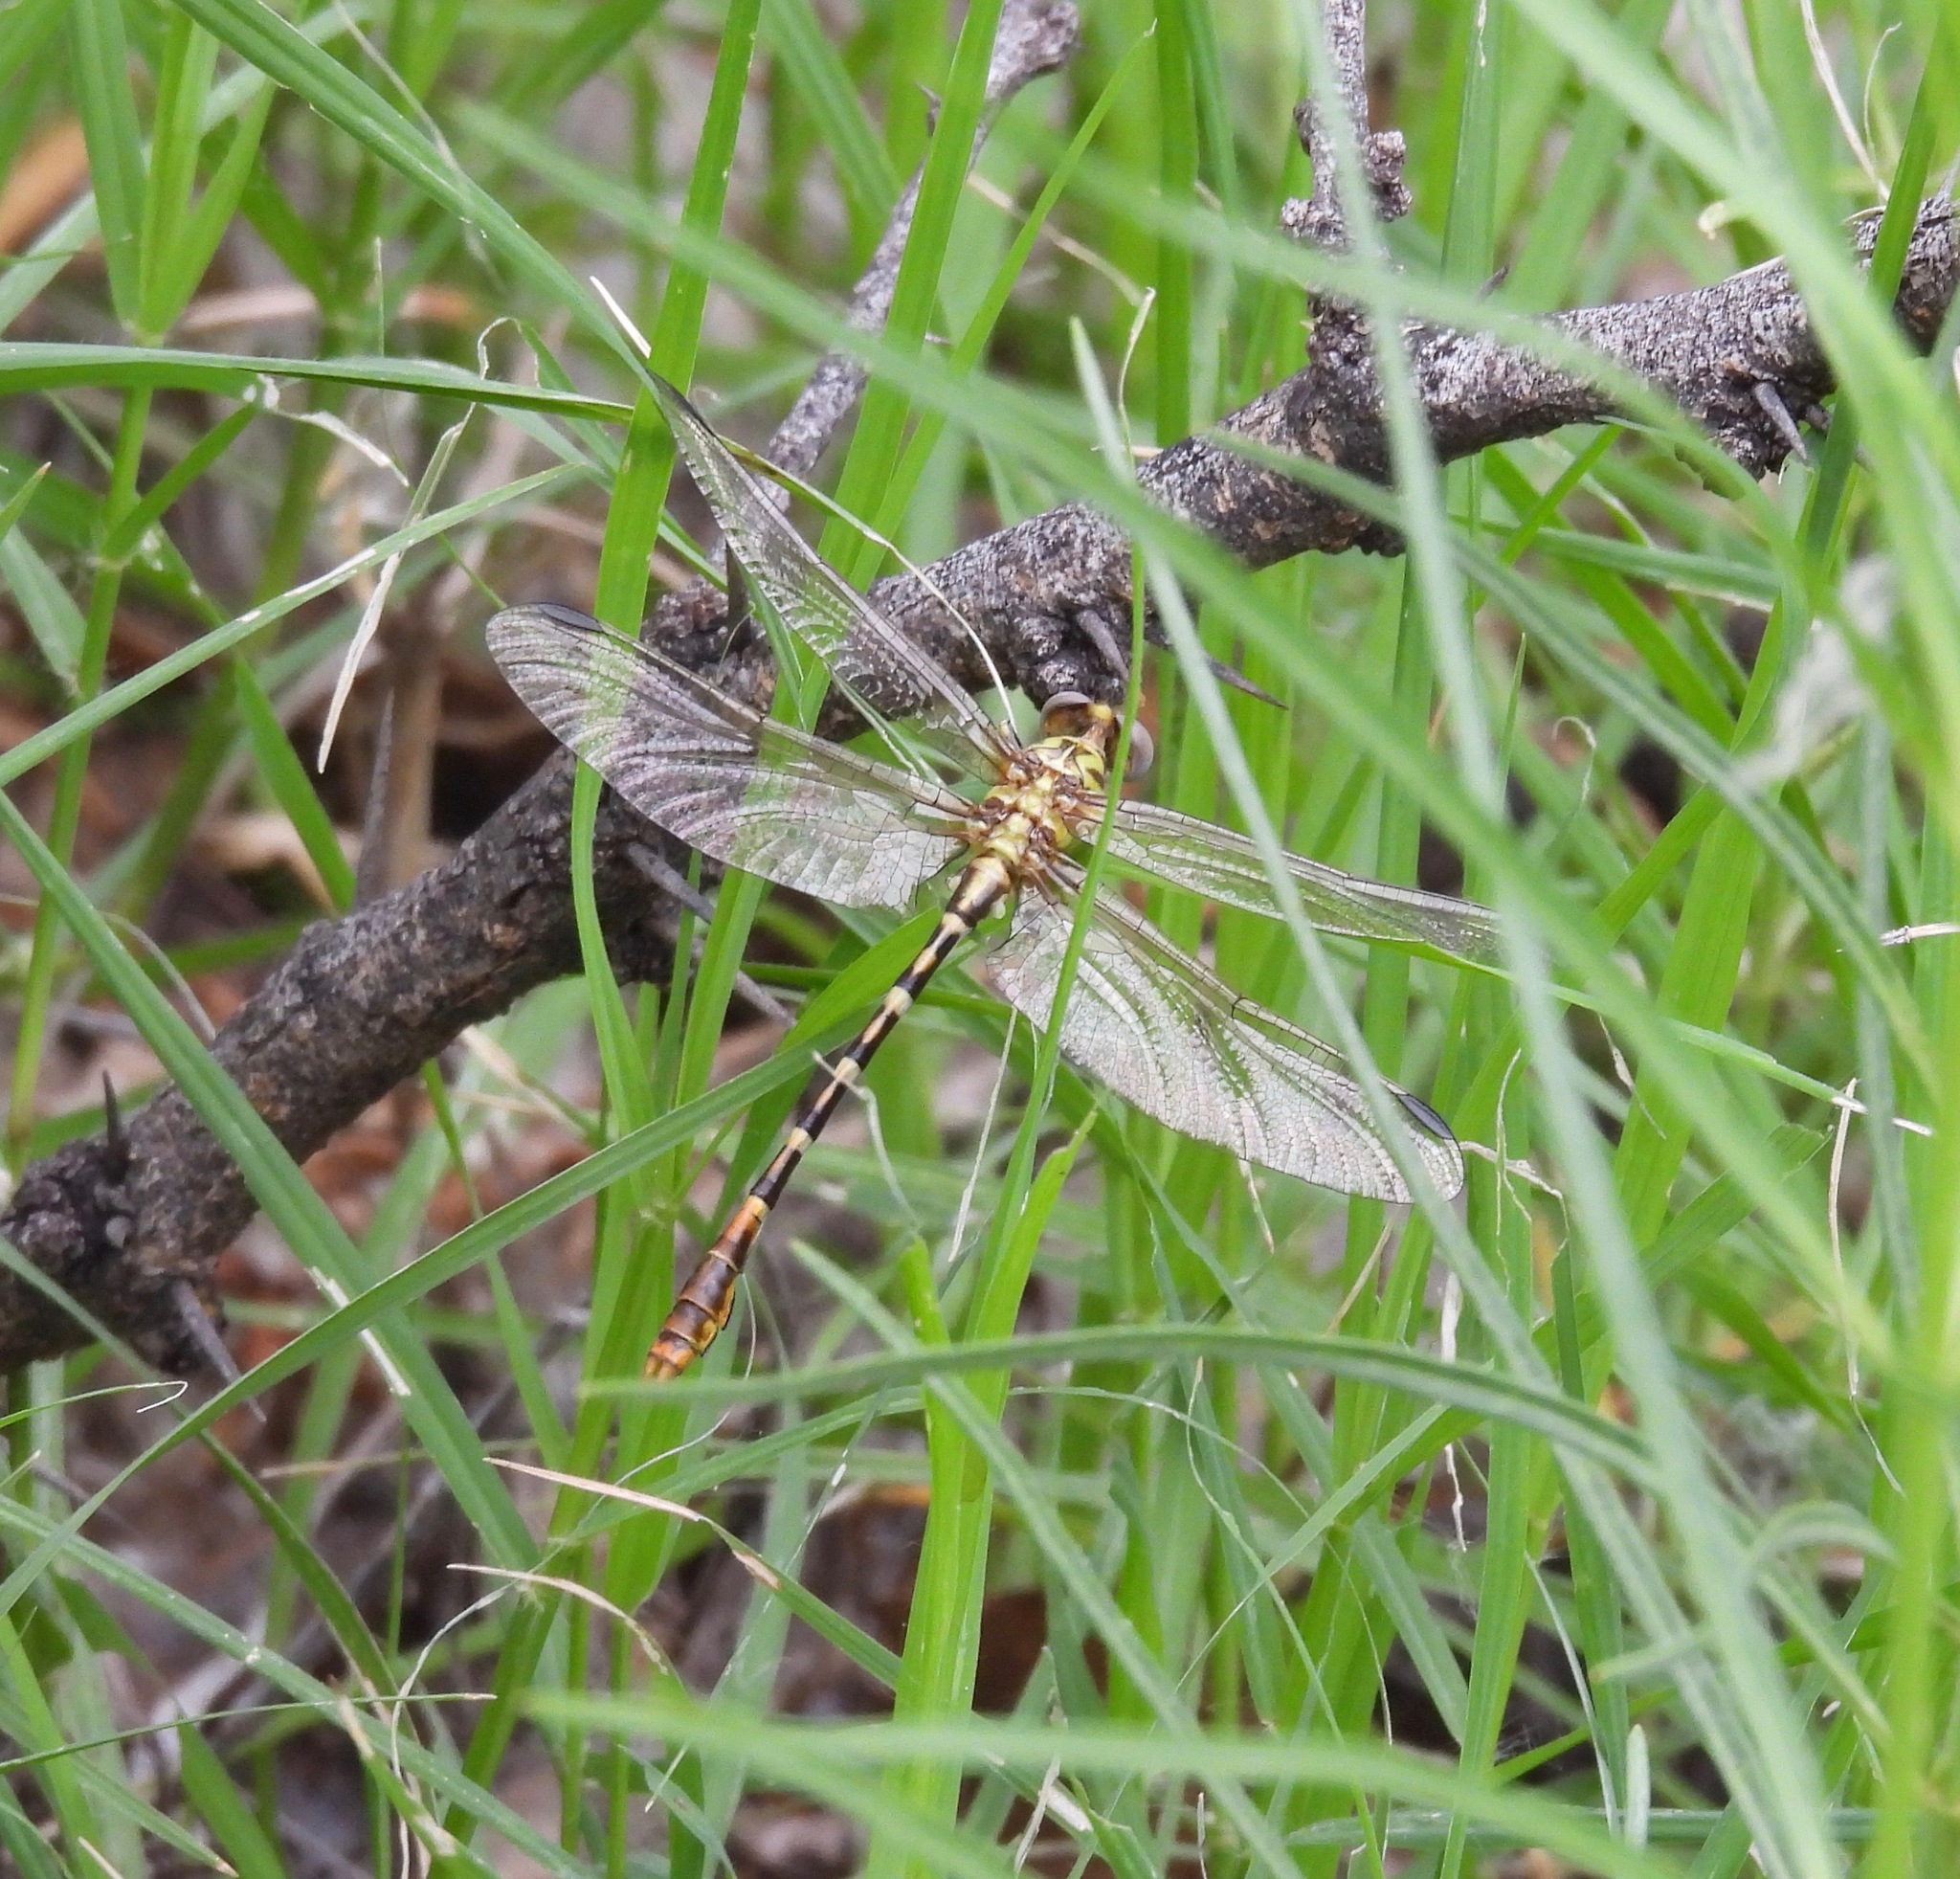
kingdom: Animalia
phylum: Arthropoda
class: Insecta
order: Odonata
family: Gomphidae
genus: Erpetogomphus
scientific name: Erpetogomphus designatus
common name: Eastern ringtail
